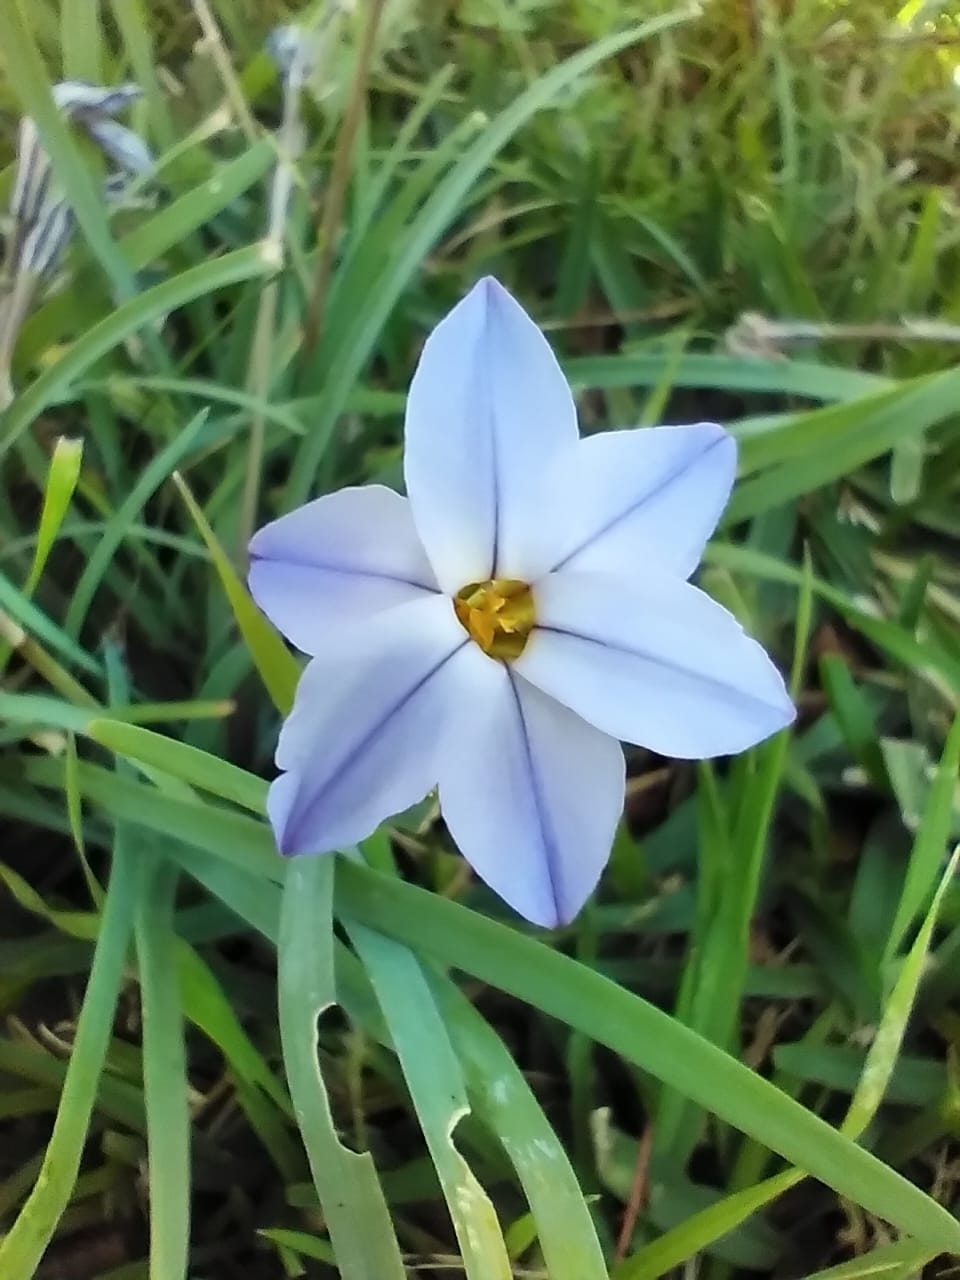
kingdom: Plantae
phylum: Tracheophyta
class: Liliopsida
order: Asparagales
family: Amaryllidaceae
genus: Ipheion
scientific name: Ipheion uniflorum
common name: Spring starflower
